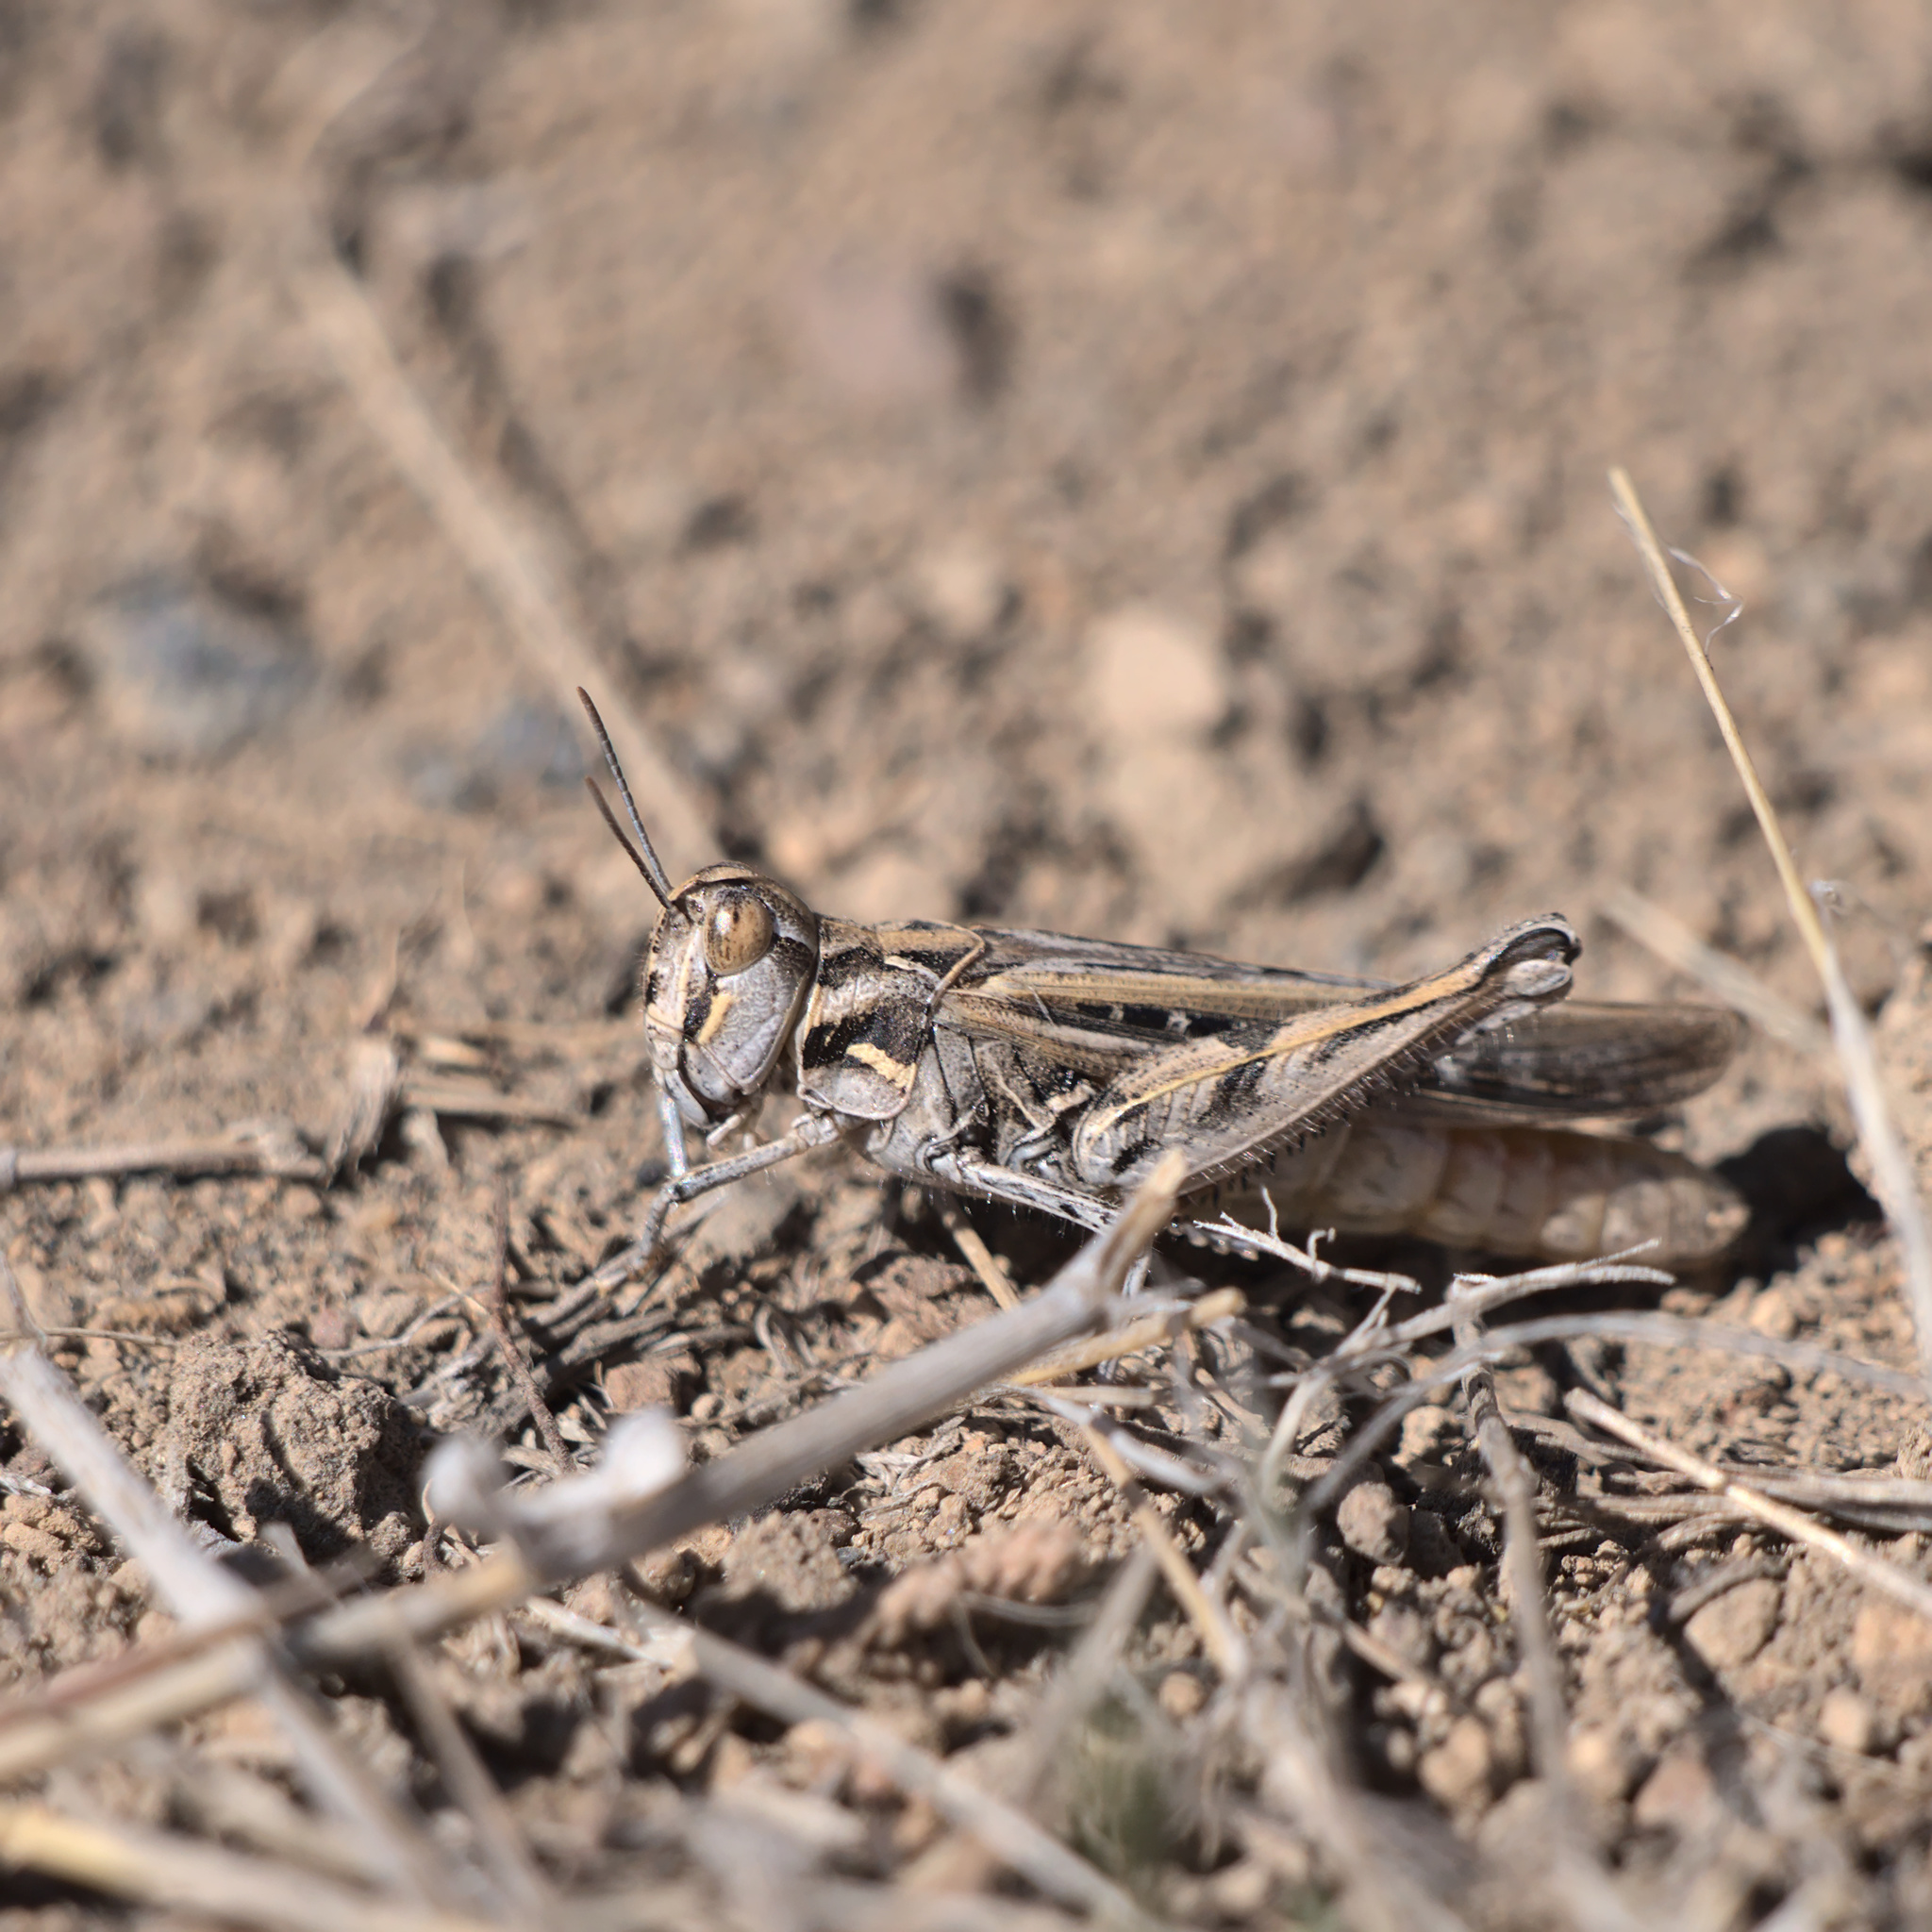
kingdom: Animalia
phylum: Arthropoda
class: Insecta
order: Orthoptera
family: Acrididae
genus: Psoloessa
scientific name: Psoloessa delicatula
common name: Brown-spotted range grasshopper
